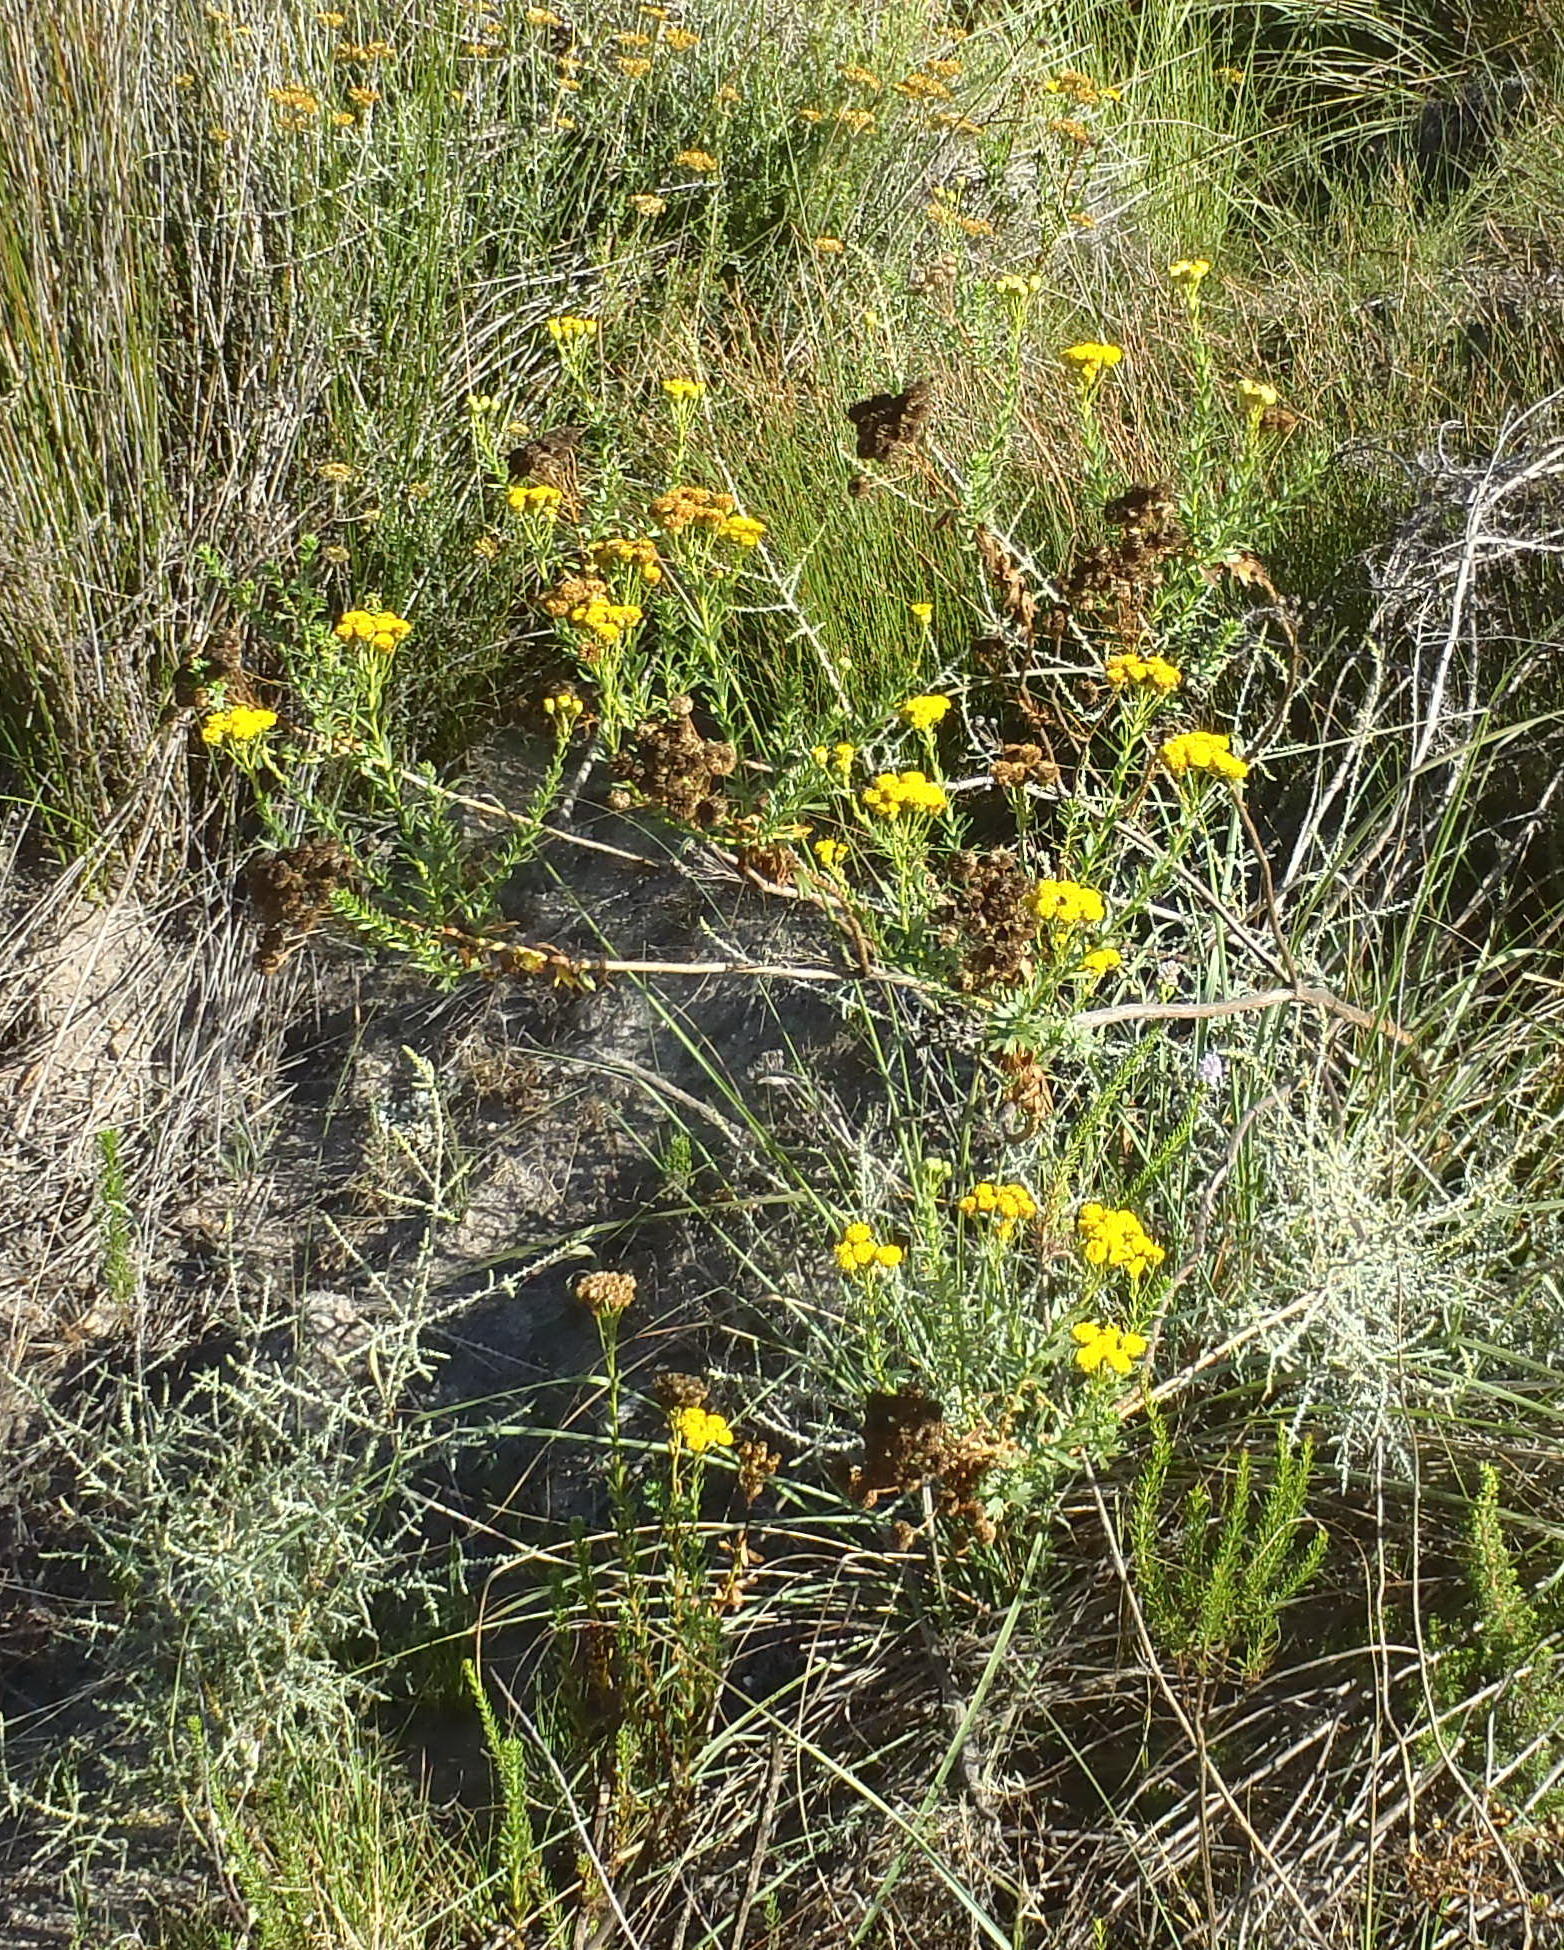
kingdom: Plantae
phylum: Tracheophyta
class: Magnoliopsida
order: Asterales
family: Asteraceae
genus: Athanasia
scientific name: Athanasia trifurcata
